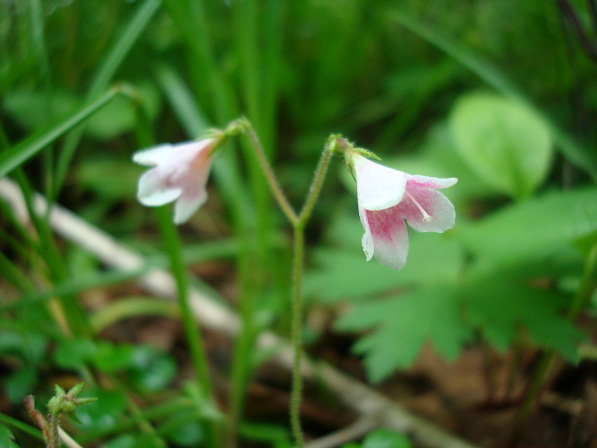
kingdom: Plantae
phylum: Tracheophyta
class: Magnoliopsida
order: Dipsacales
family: Caprifoliaceae
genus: Linnaea
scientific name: Linnaea borealis
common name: Twinflower
